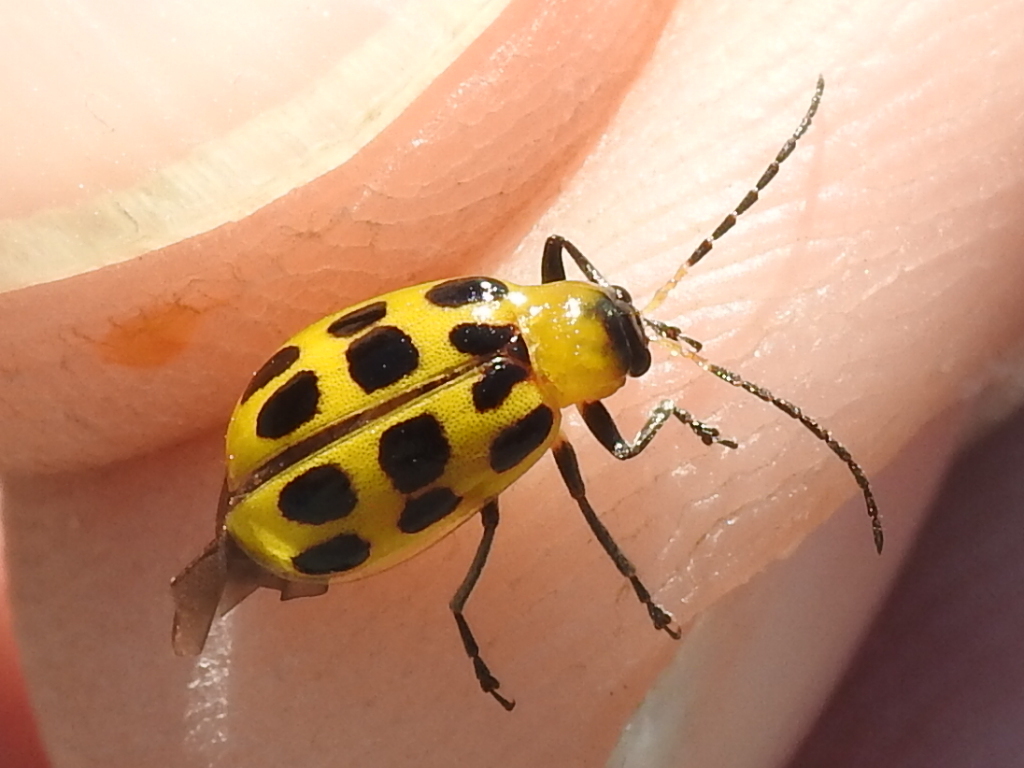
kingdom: Animalia
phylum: Arthropoda
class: Insecta
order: Coleoptera
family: Chrysomelidae
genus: Diabrotica
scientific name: Diabrotica undecimpunctata
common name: Spotted cucumber beetle
